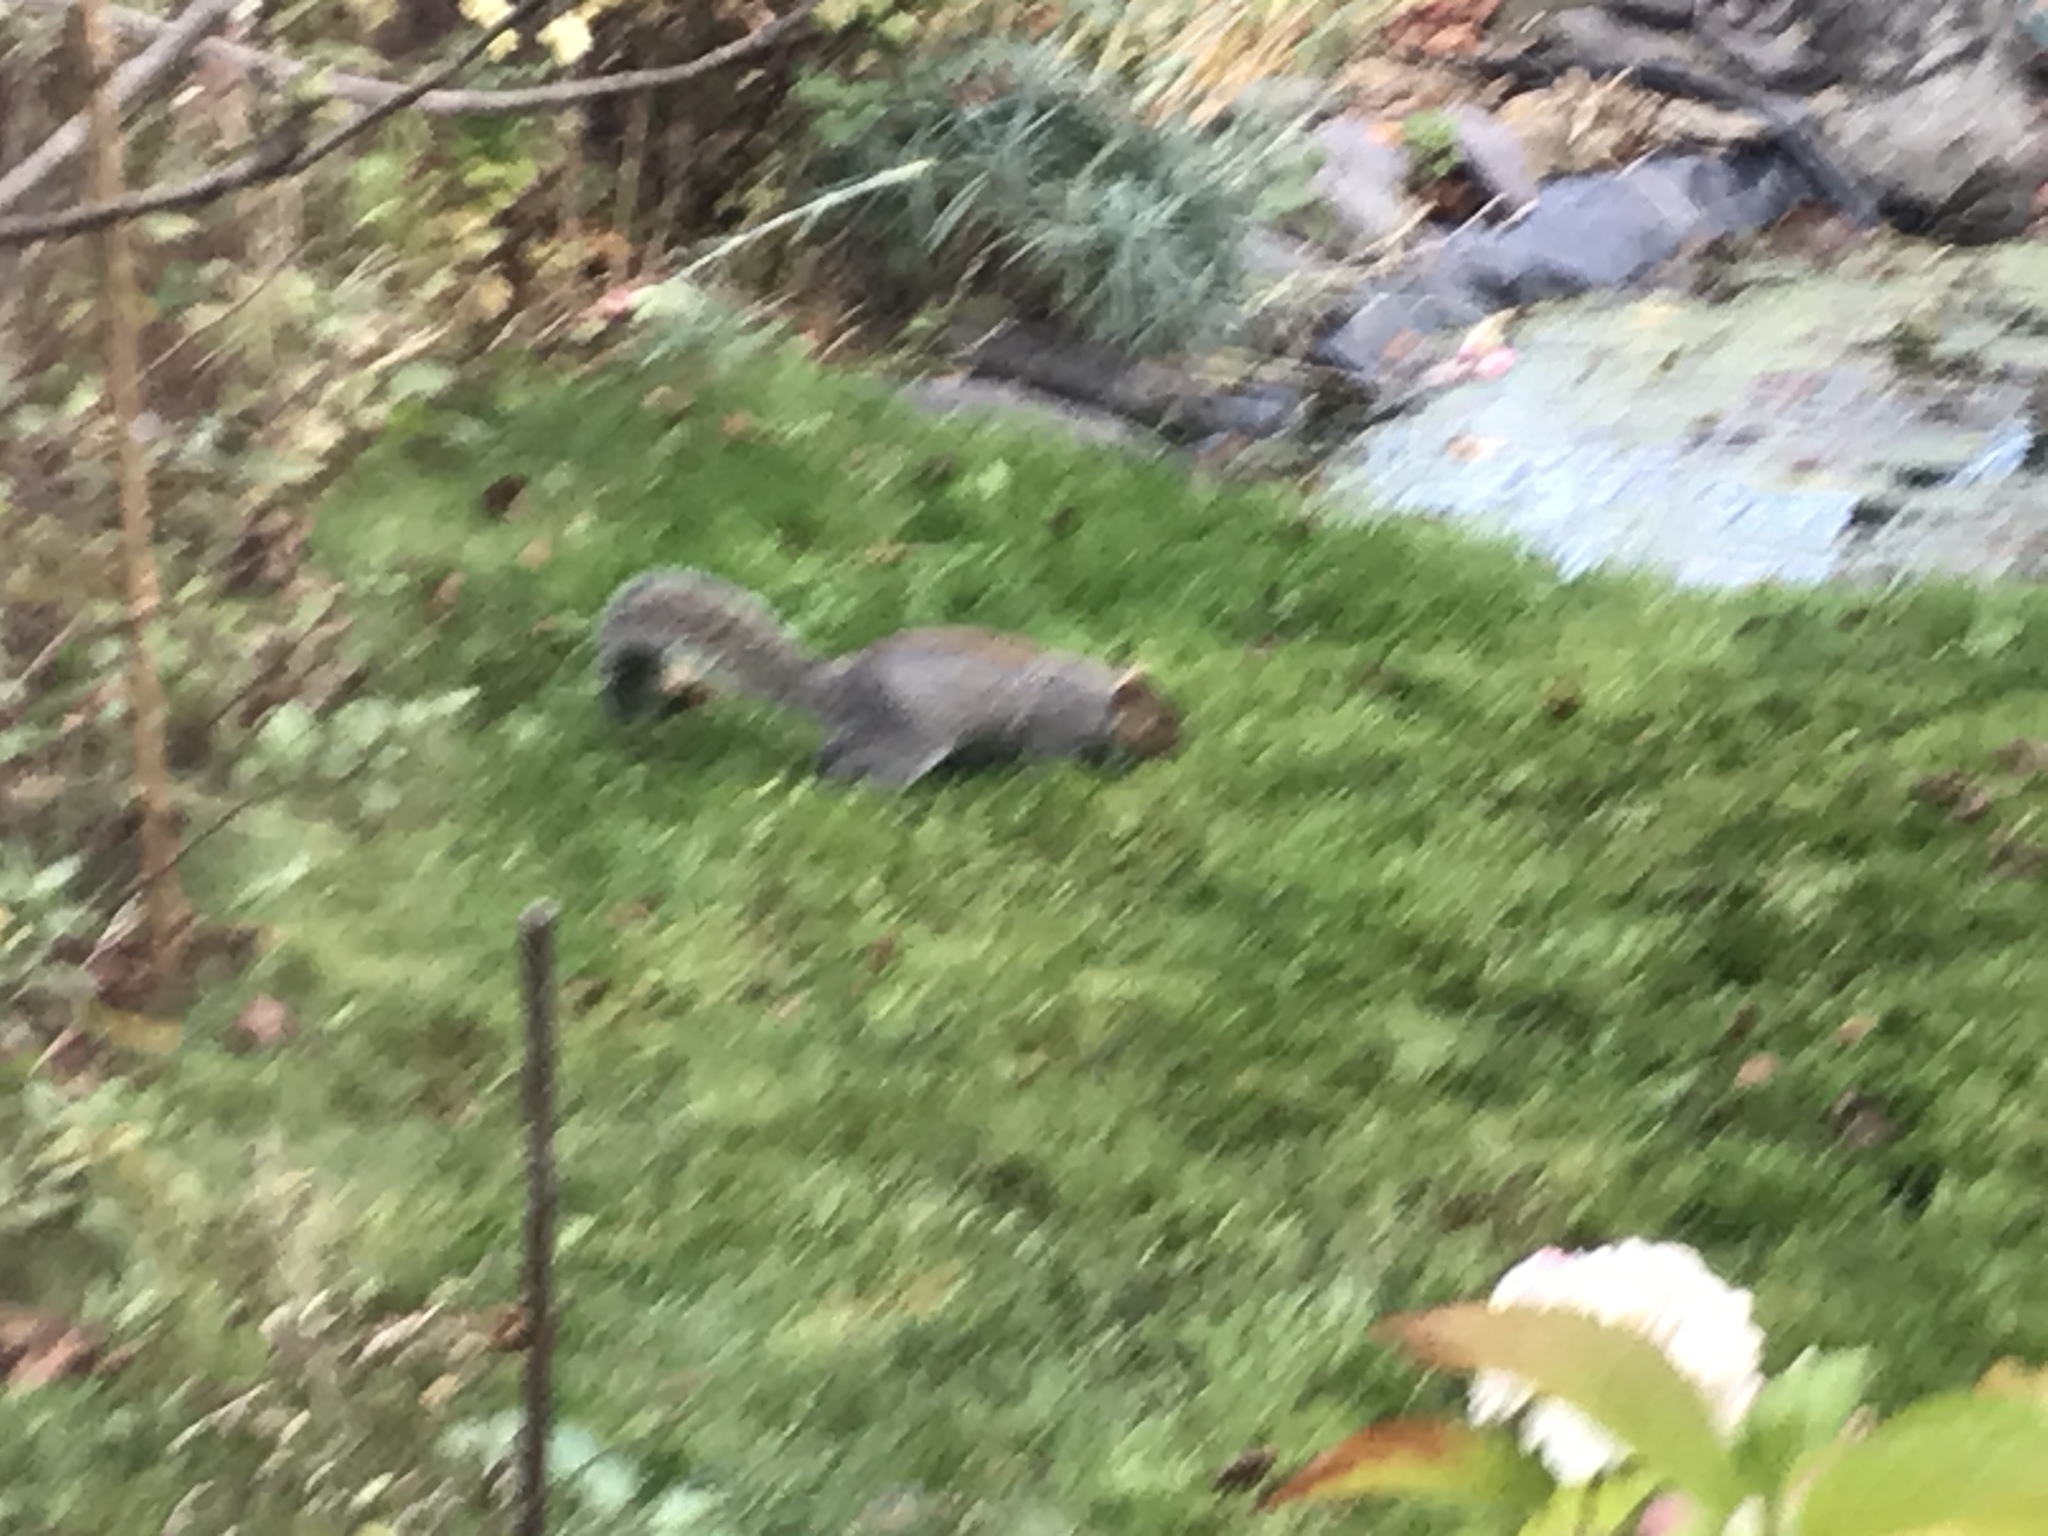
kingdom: Animalia
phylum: Chordata
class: Mammalia
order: Rodentia
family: Sciuridae
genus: Sciurus
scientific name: Sciurus carolinensis
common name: Eastern gray squirrel
